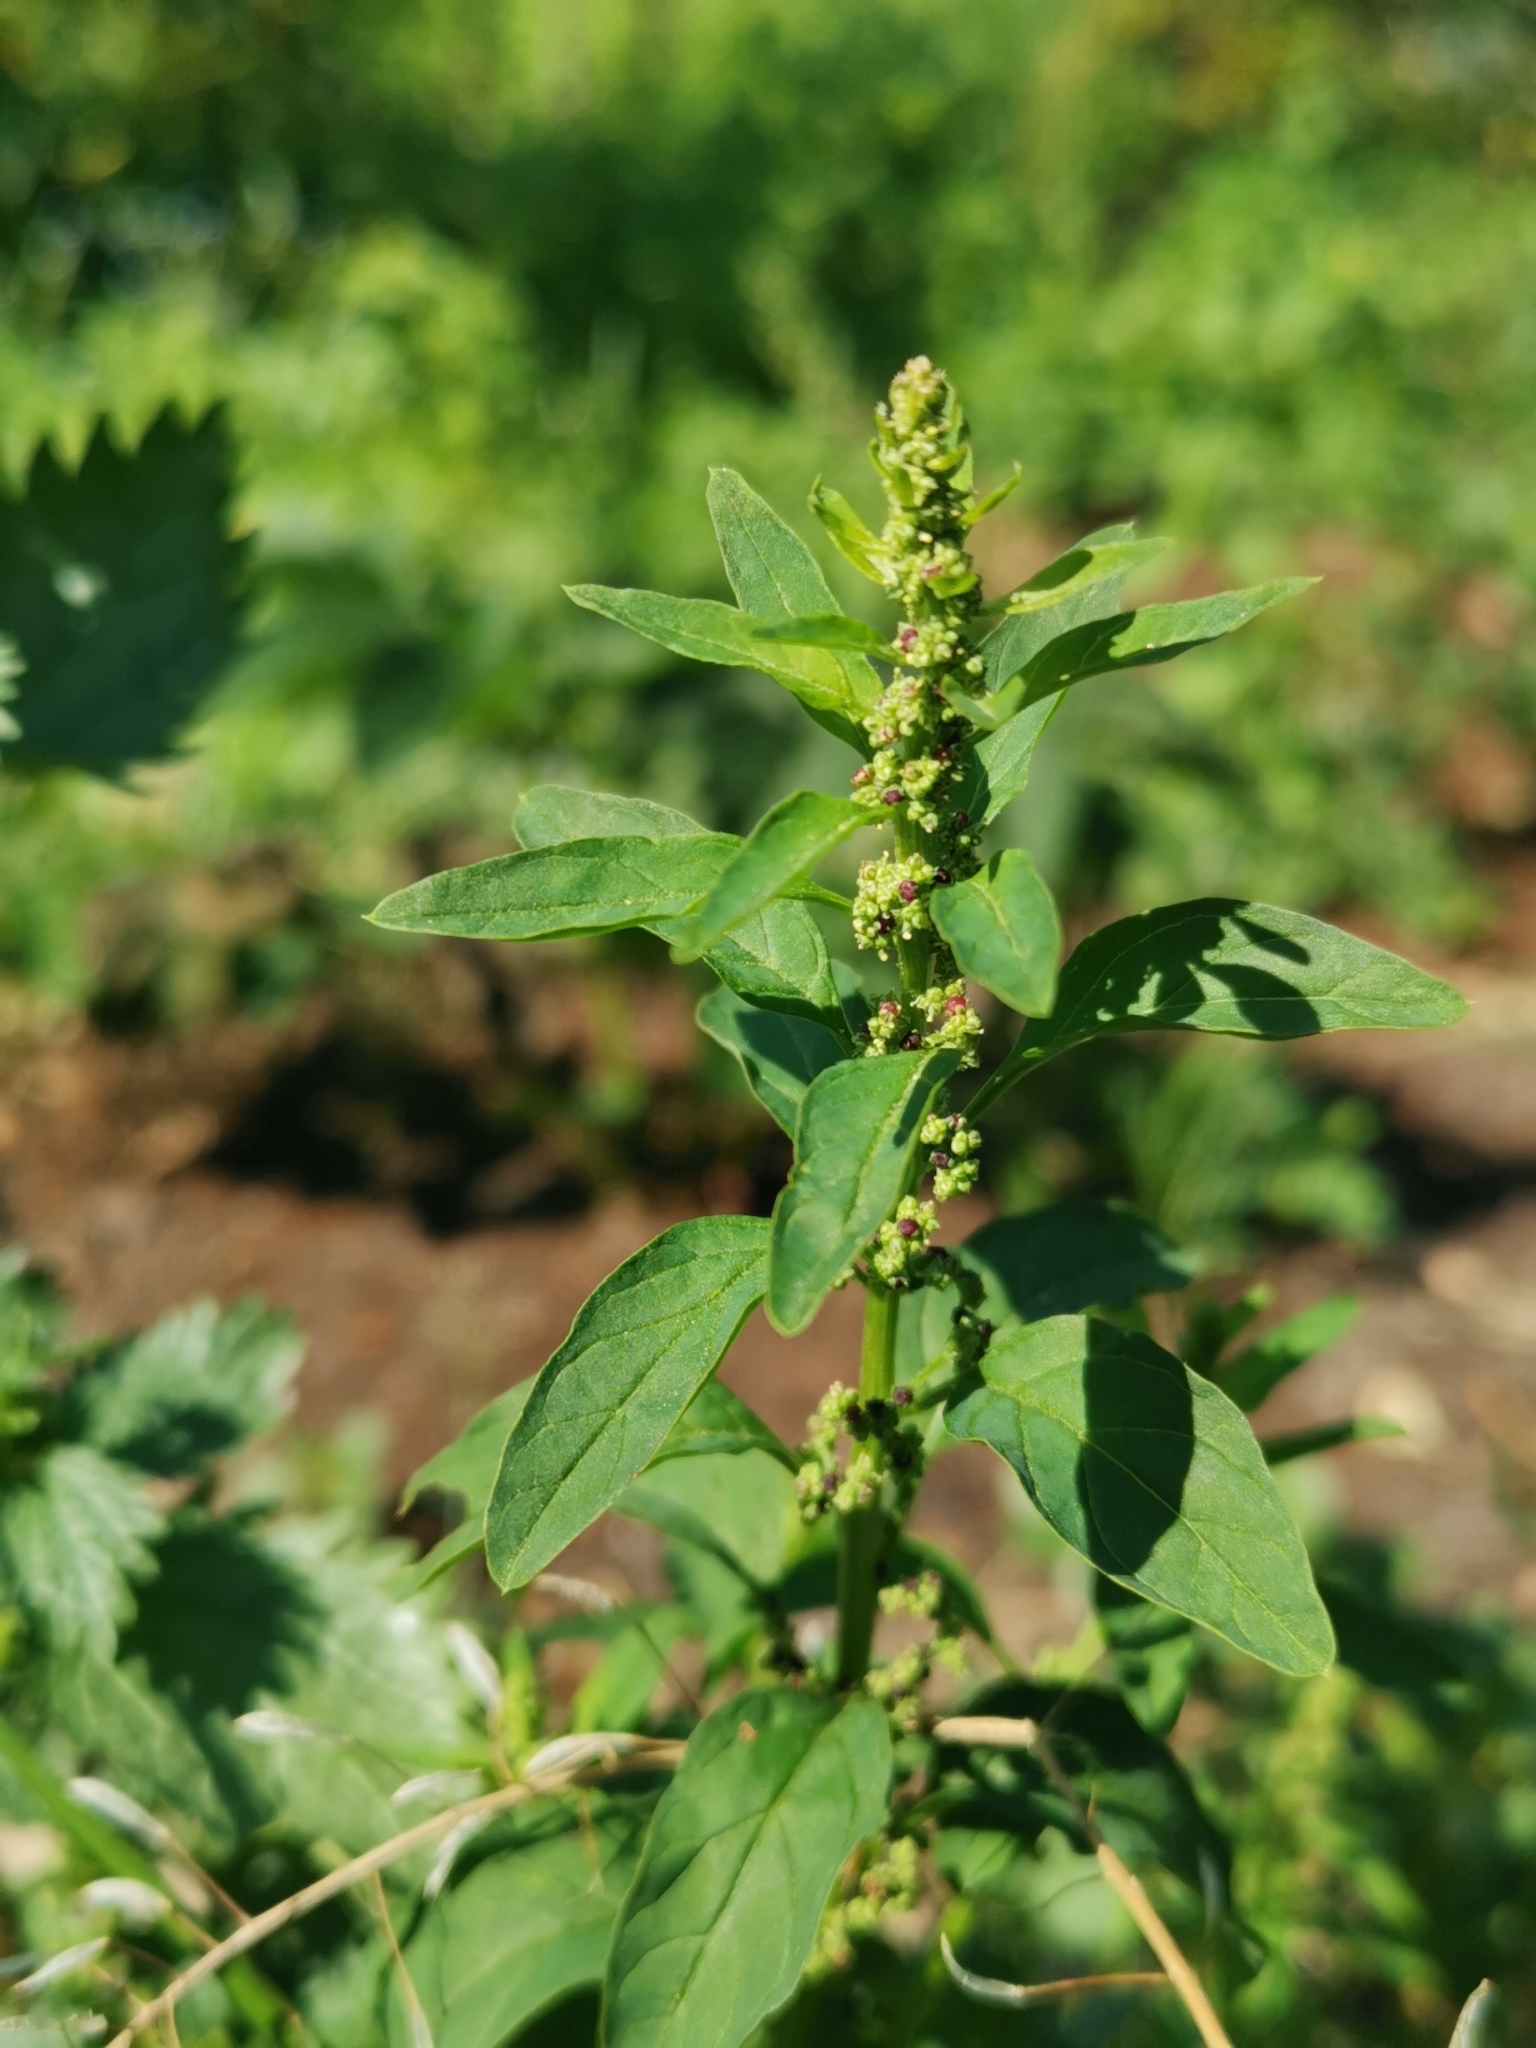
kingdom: Plantae
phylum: Tracheophyta
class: Magnoliopsida
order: Caryophyllales
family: Amaranthaceae
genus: Lipandra
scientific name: Lipandra polysperma
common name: Many-seed goosefoot
